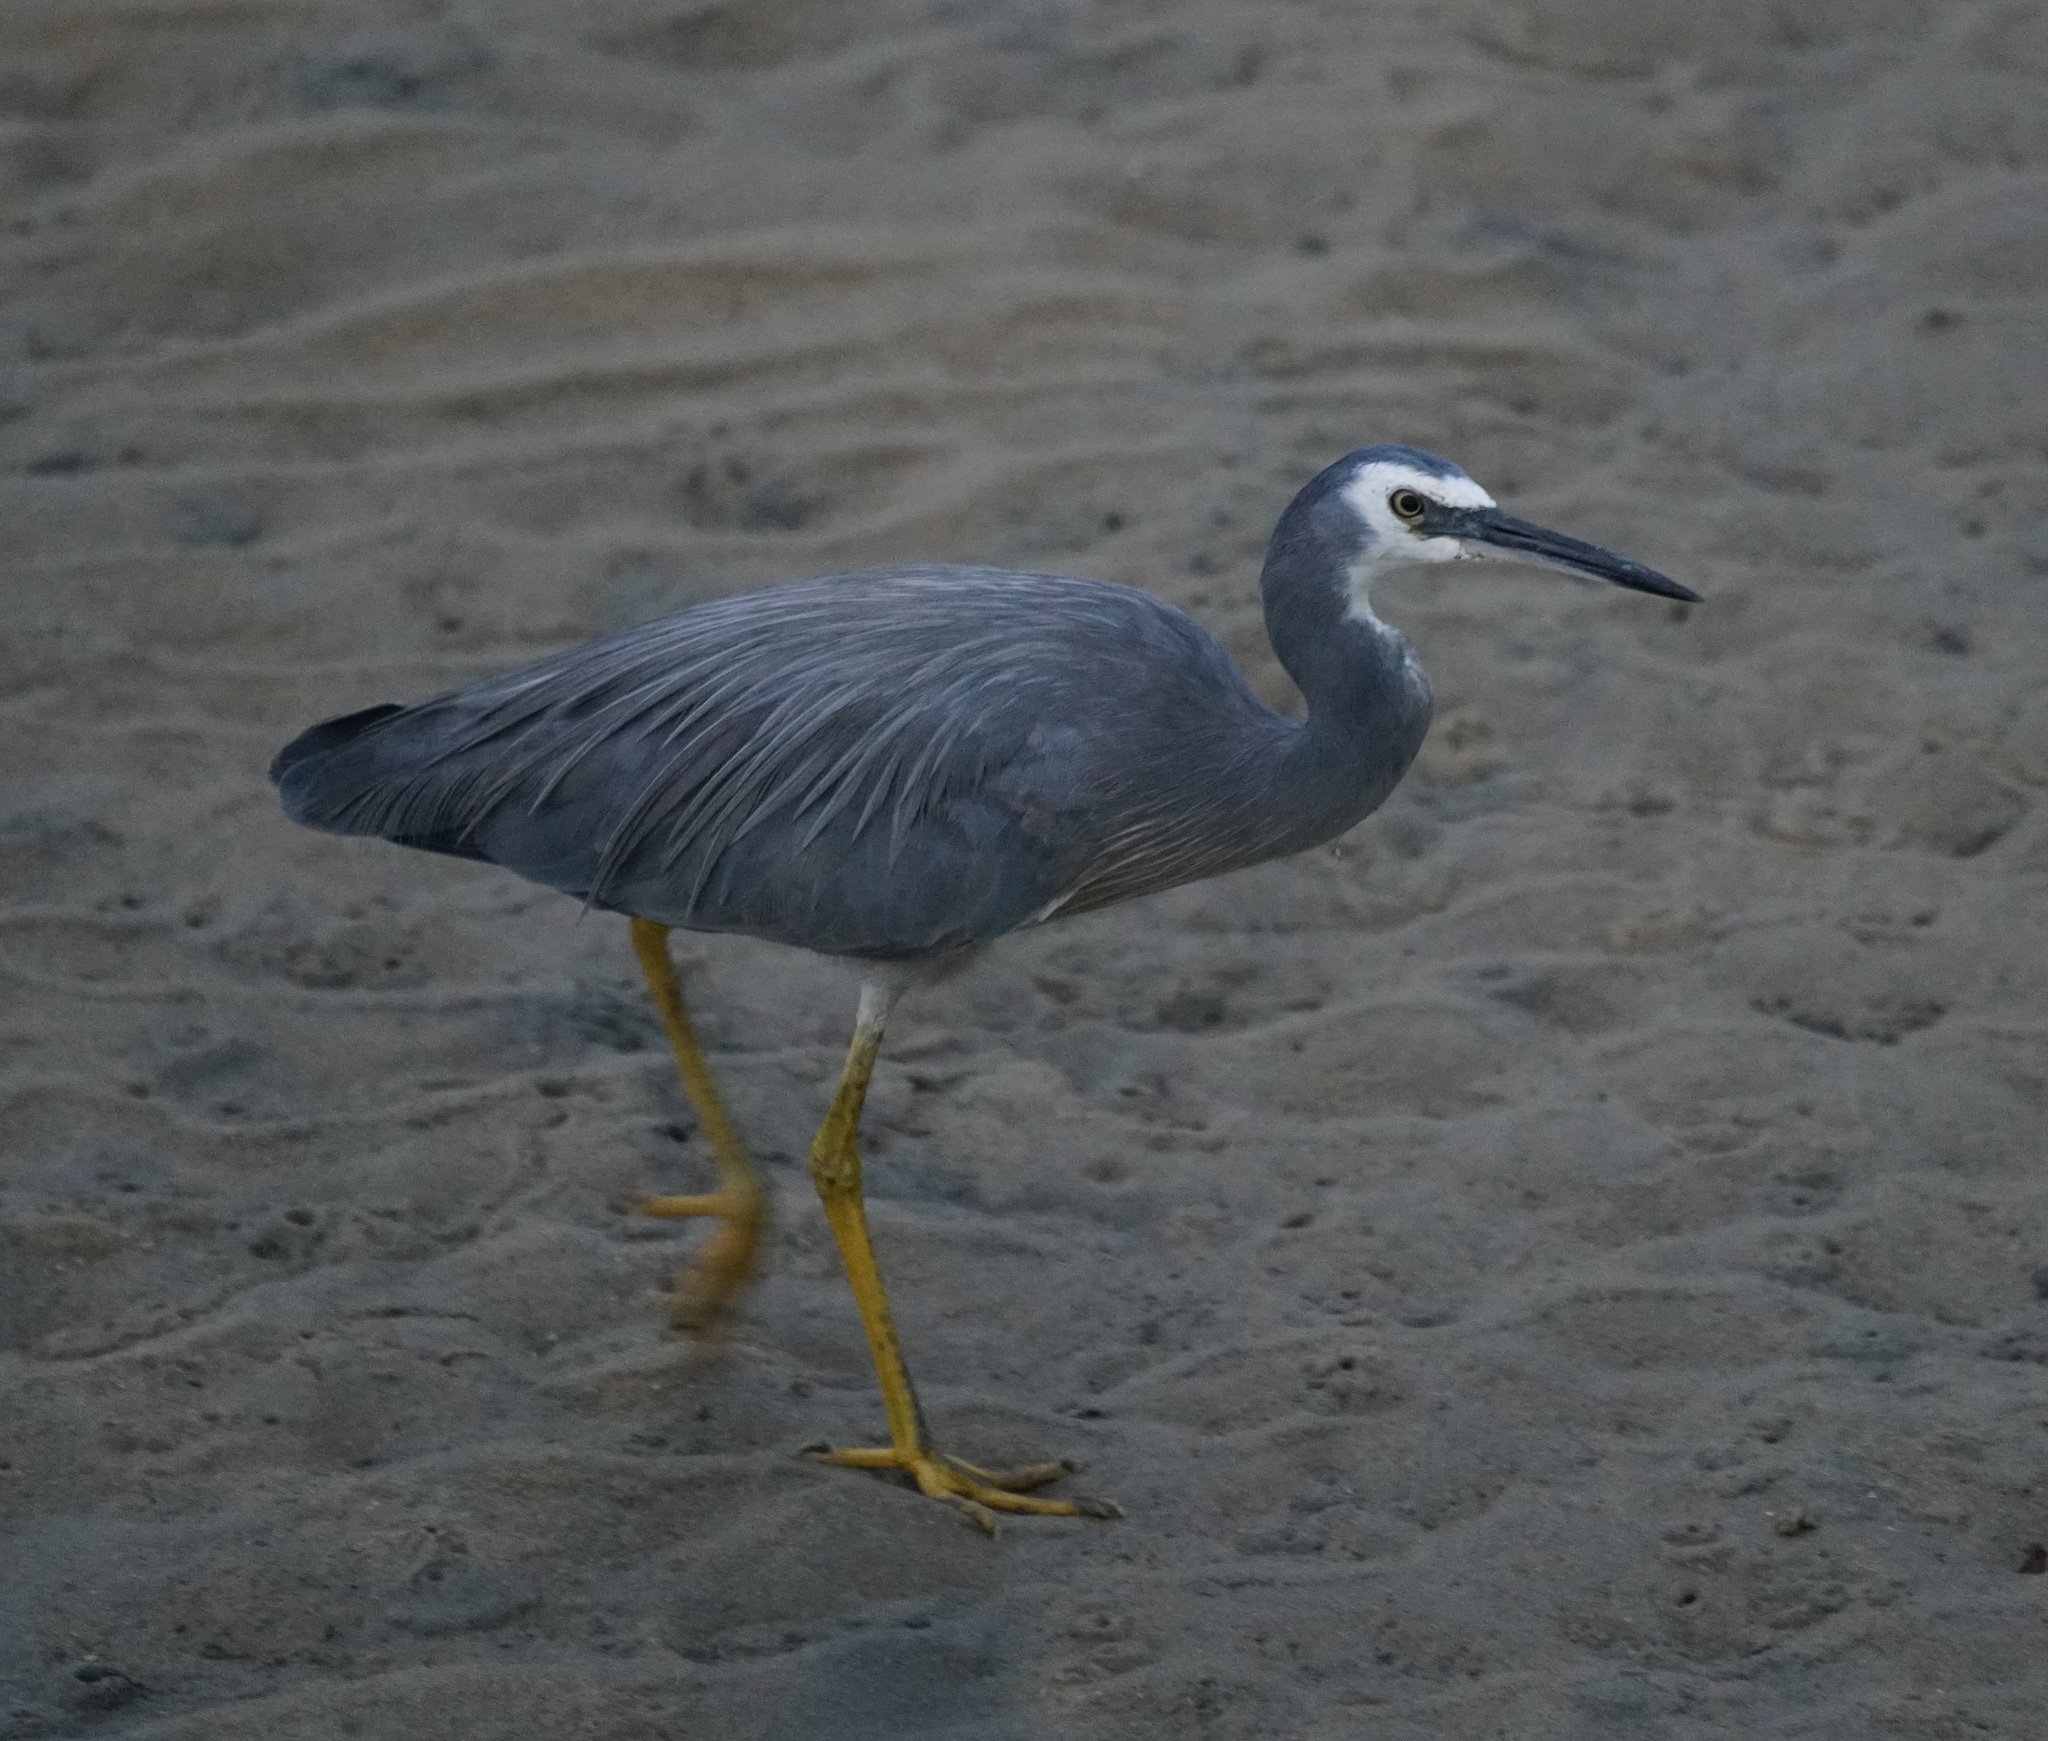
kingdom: Animalia
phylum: Chordata
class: Aves
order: Pelecaniformes
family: Ardeidae
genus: Egretta
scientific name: Egretta novaehollandiae
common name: White-faced heron
